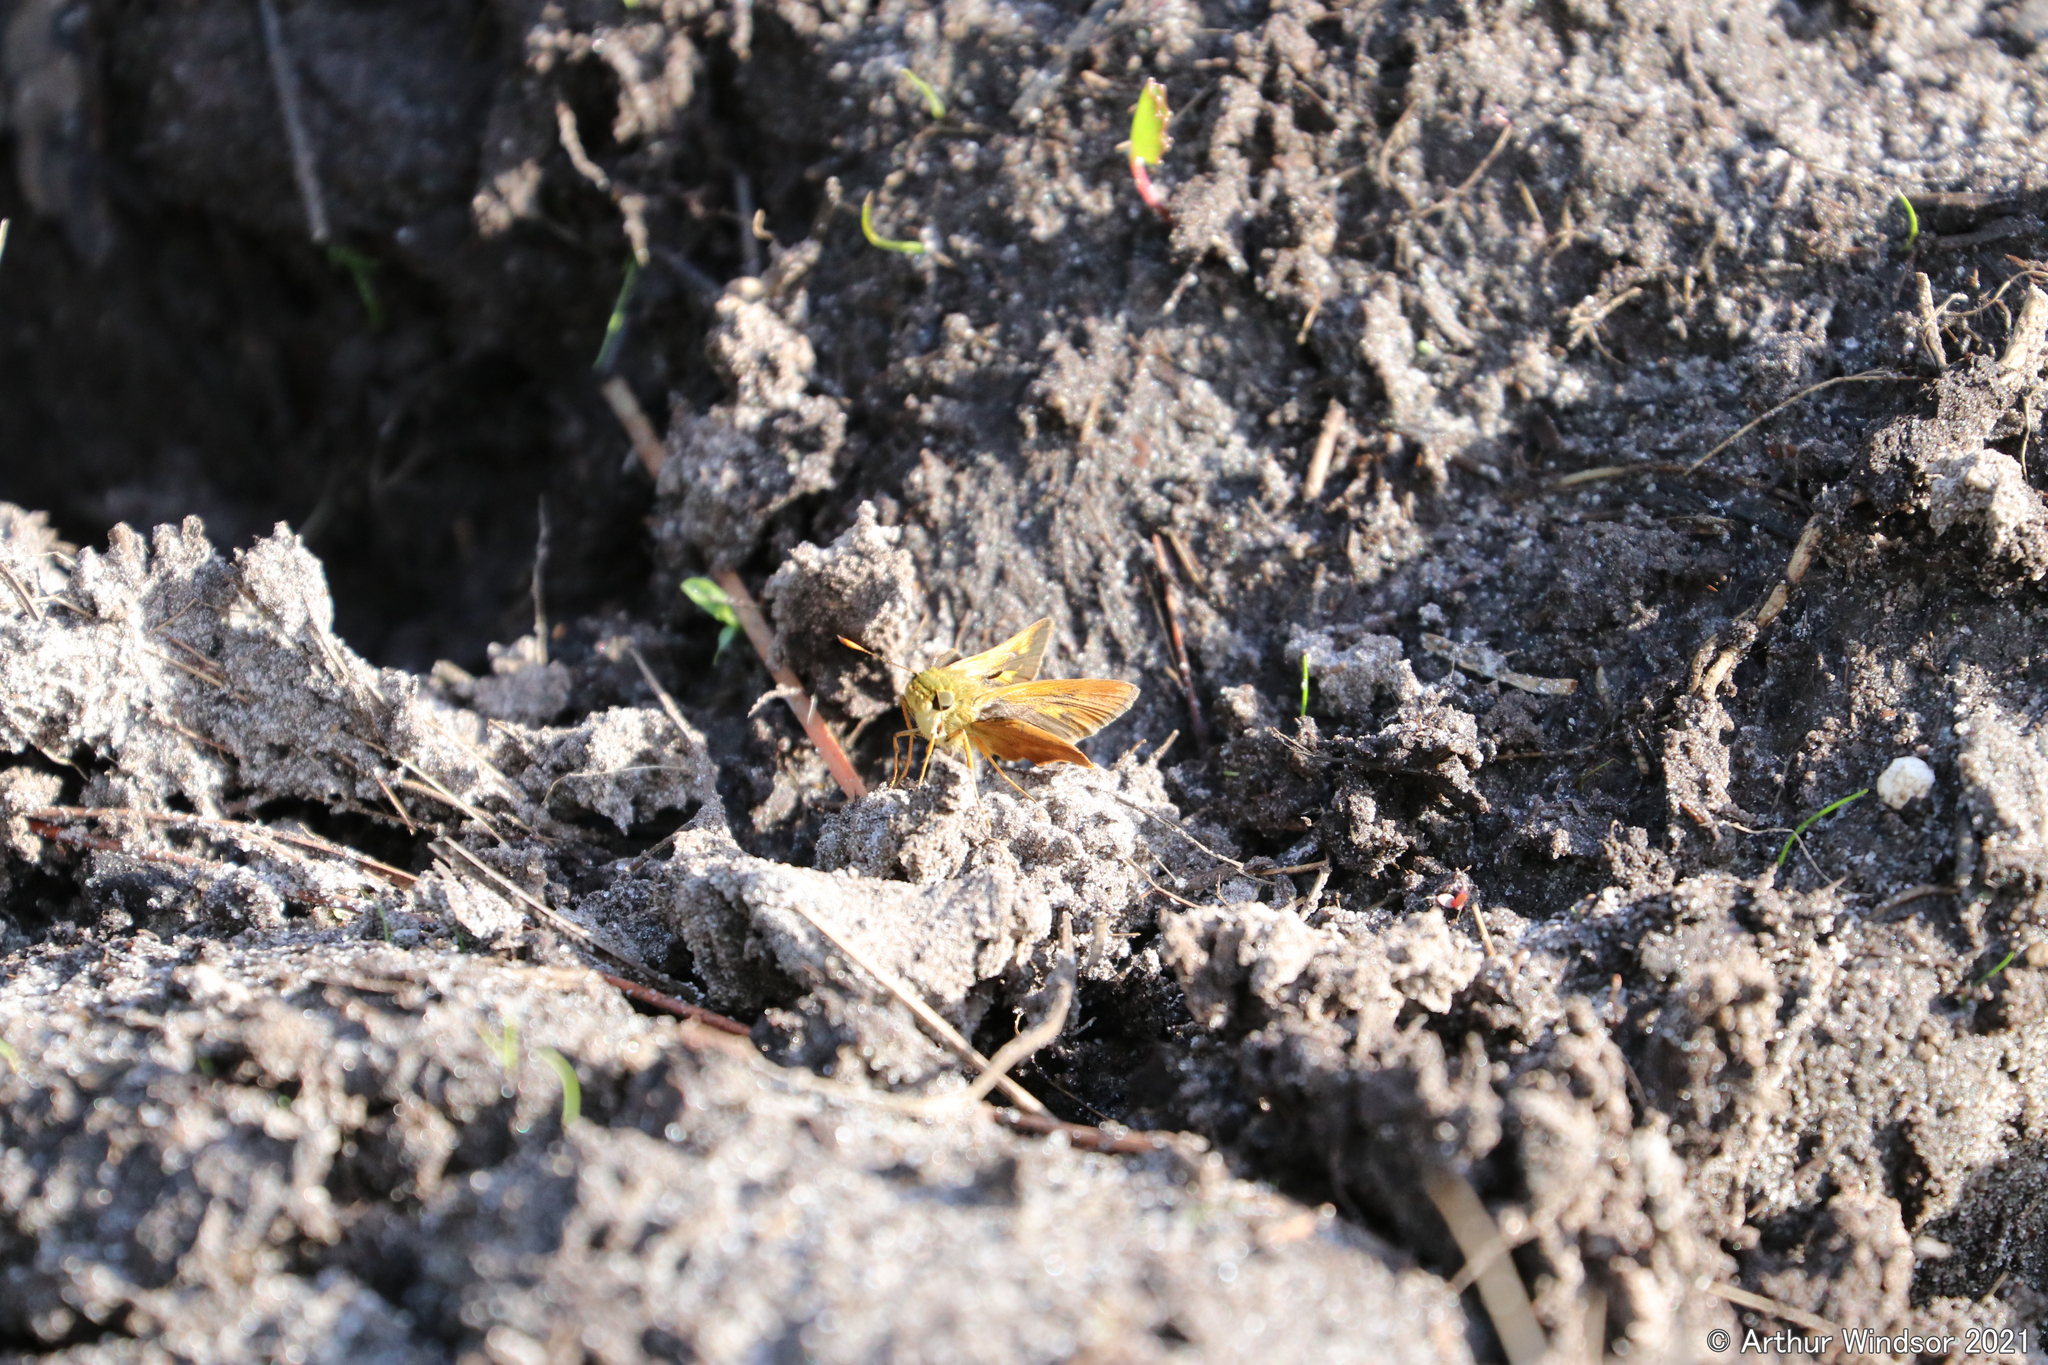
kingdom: Animalia
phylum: Arthropoda
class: Insecta
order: Lepidoptera
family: Hesperiidae
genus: Polites
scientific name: Polites otho
